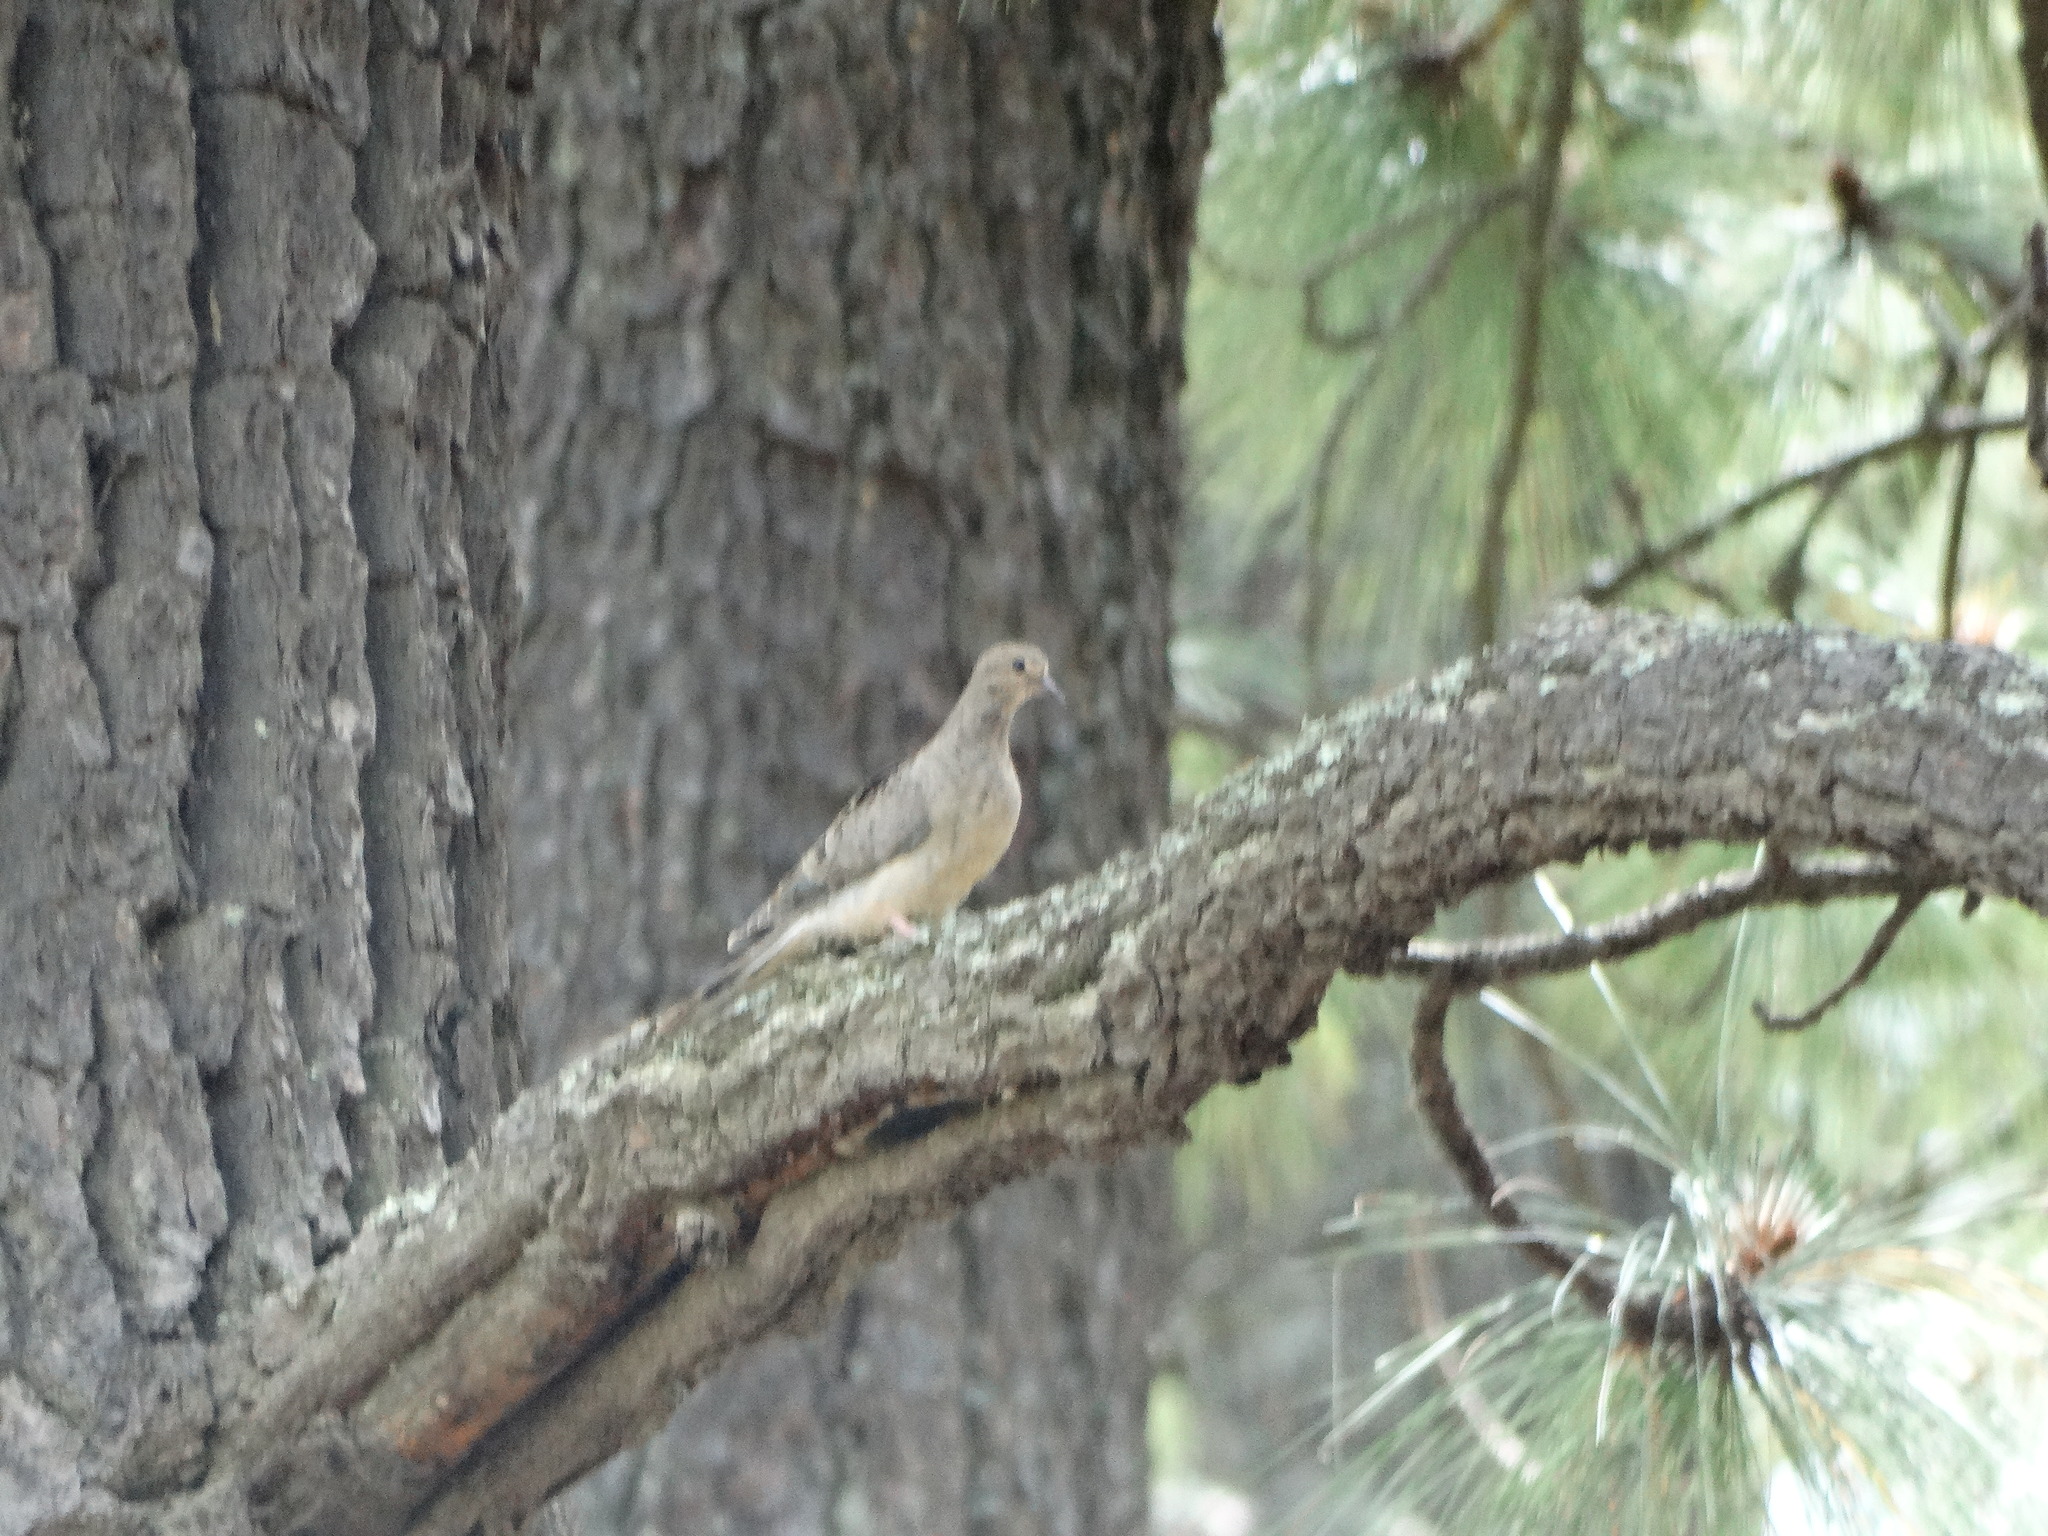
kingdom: Animalia
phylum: Chordata
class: Aves
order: Columbiformes
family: Columbidae
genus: Zenaida
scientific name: Zenaida macroura
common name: Mourning dove
